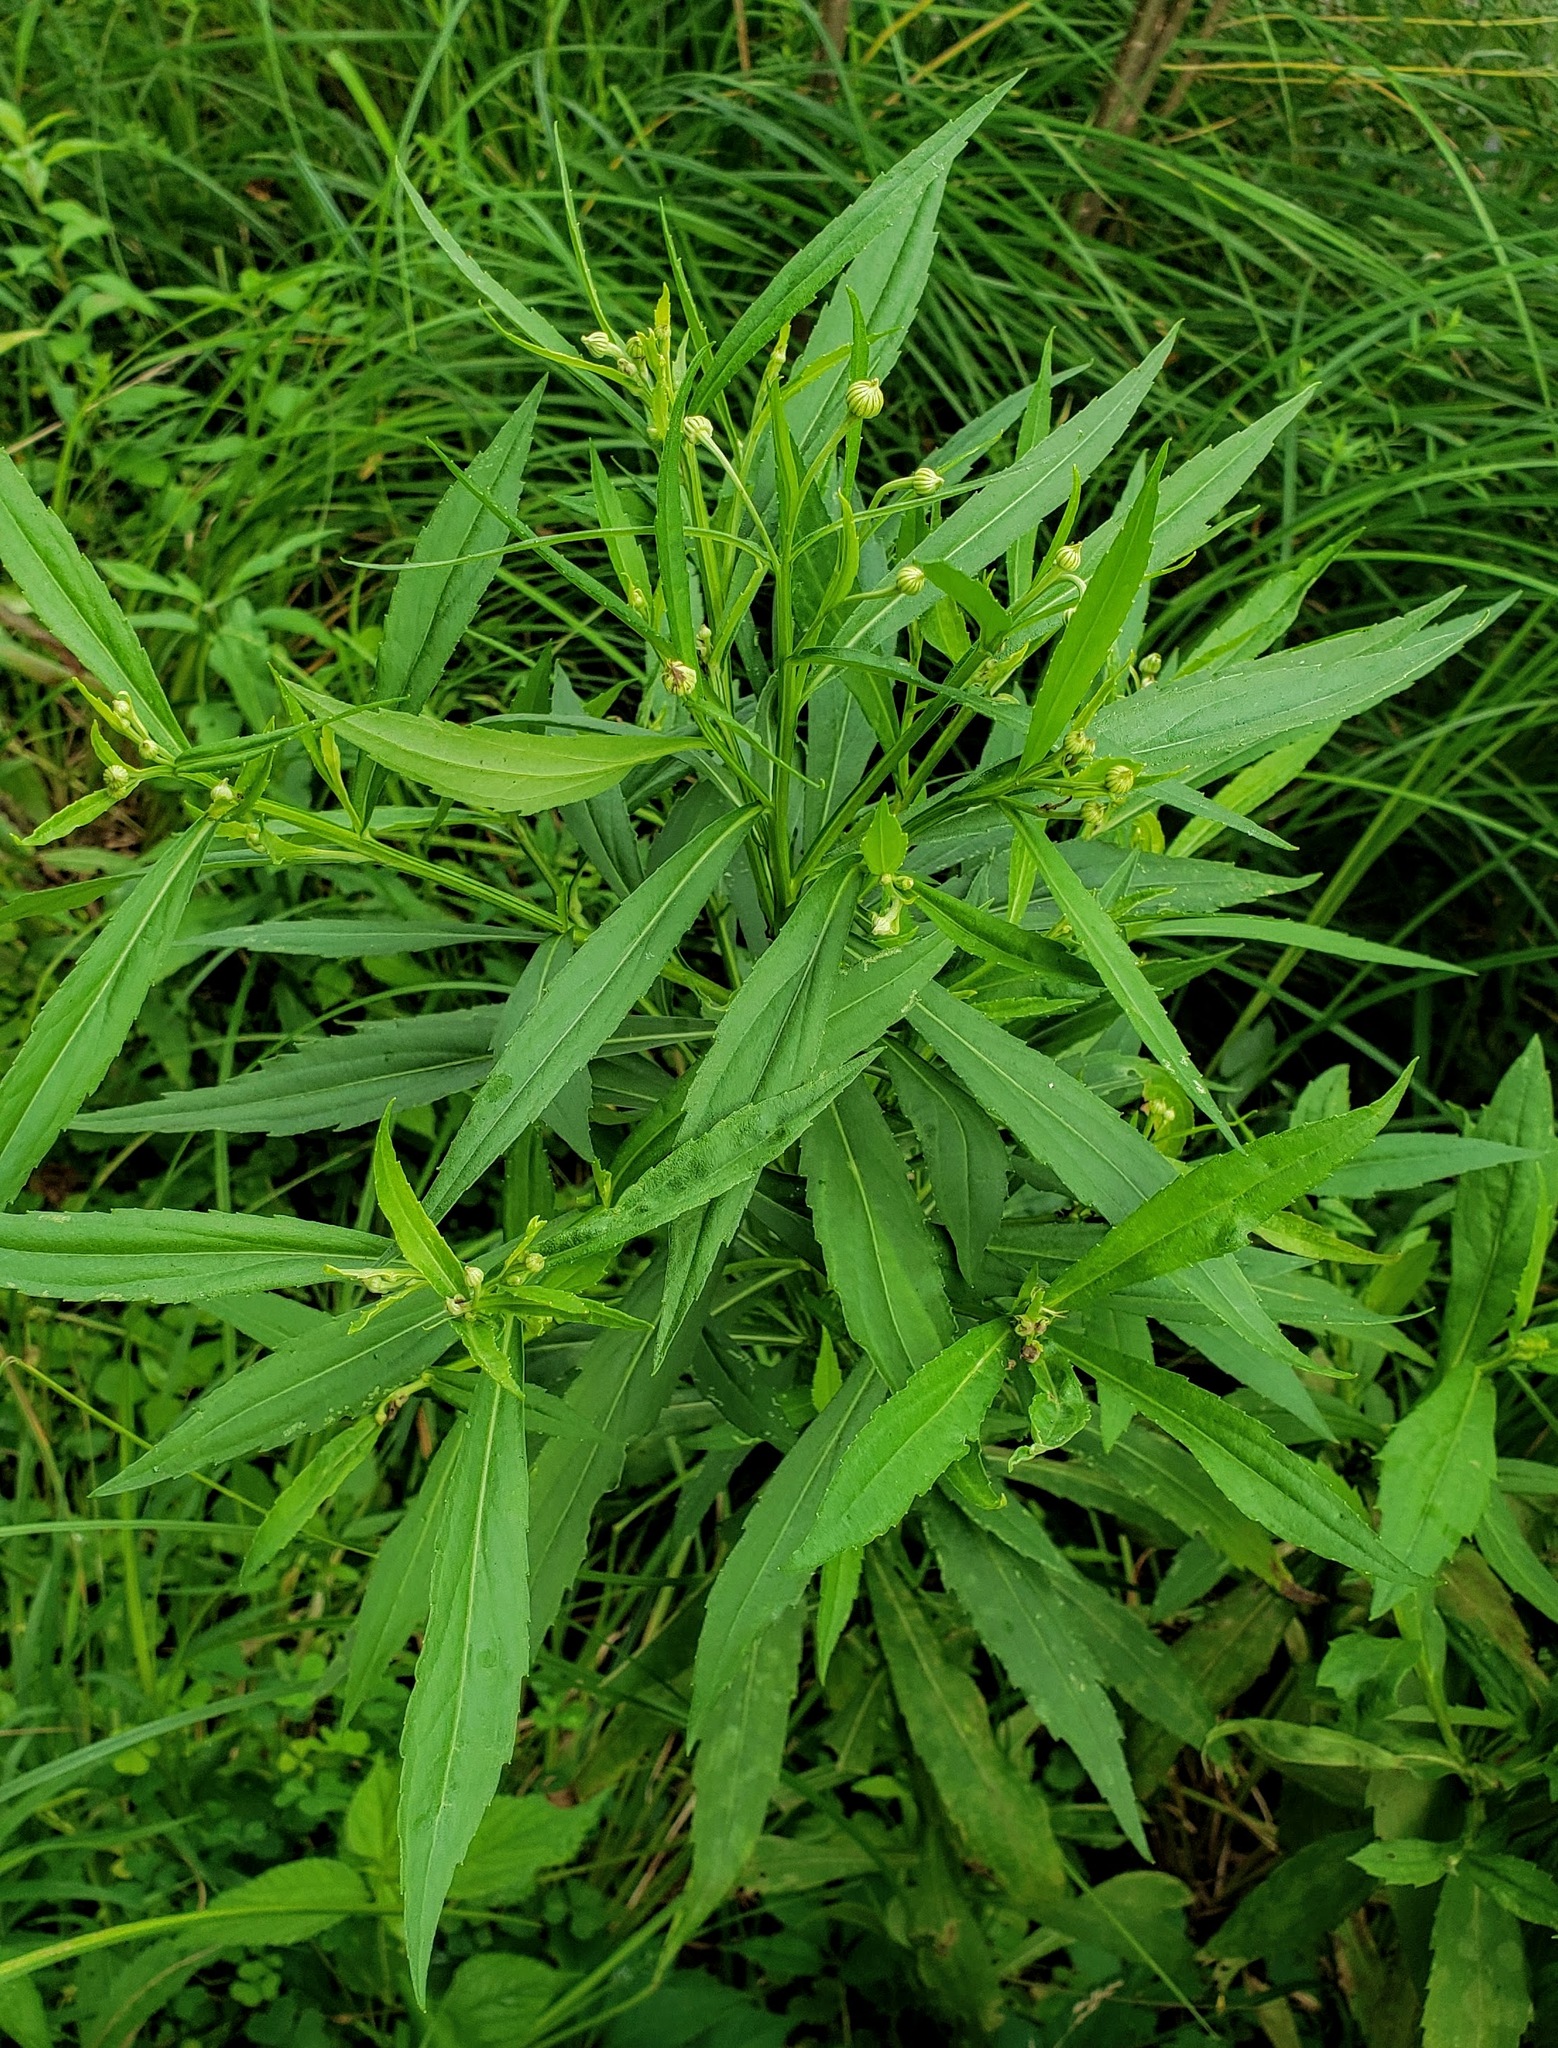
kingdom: Plantae
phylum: Tracheophyta
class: Magnoliopsida
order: Asterales
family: Asteraceae
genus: Helenium
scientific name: Helenium autumnale
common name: Sneezeweed
